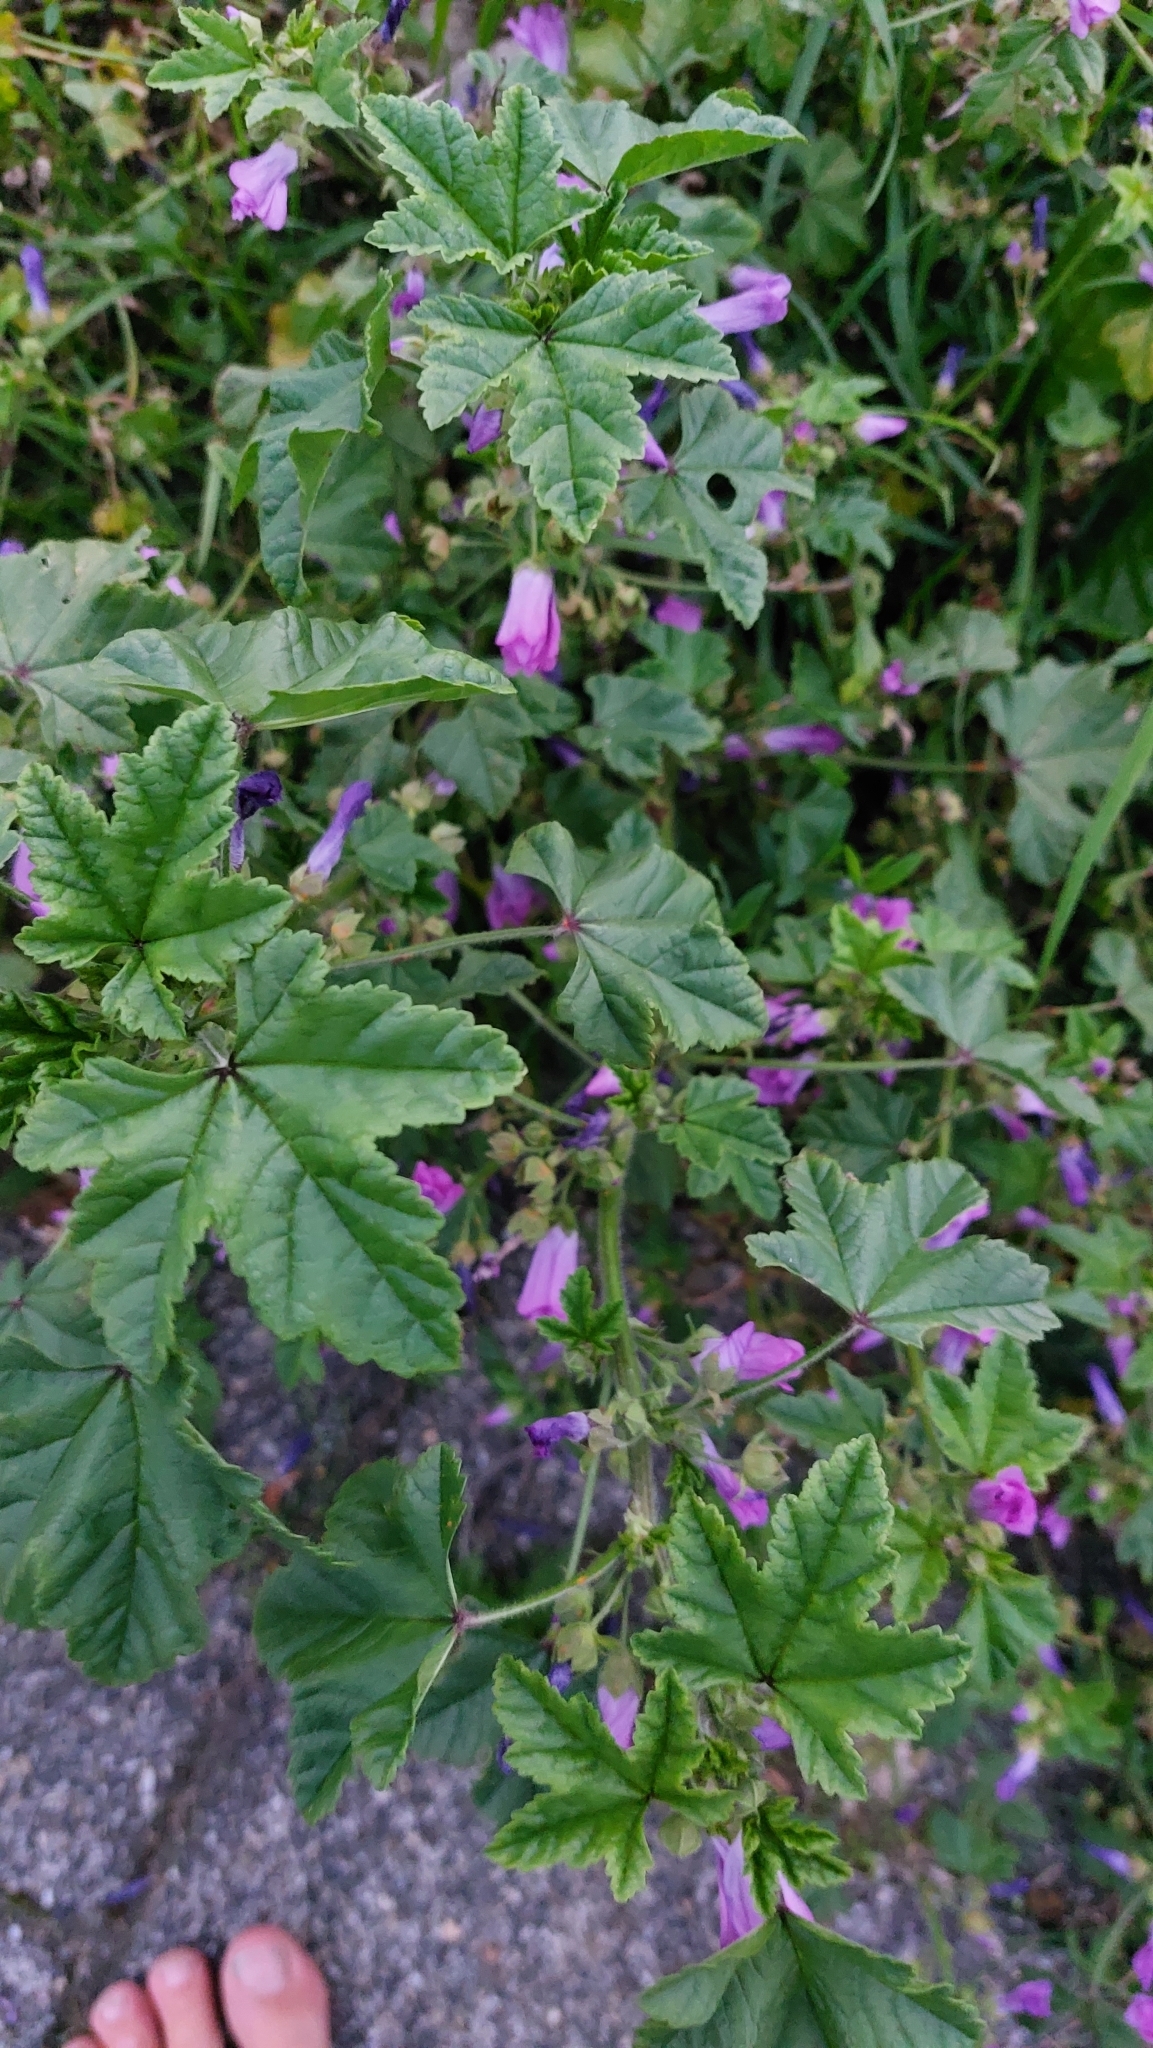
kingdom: Plantae
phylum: Tracheophyta
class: Magnoliopsida
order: Malvales
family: Malvaceae
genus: Malva
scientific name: Malva sylvestris
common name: Common mallow
